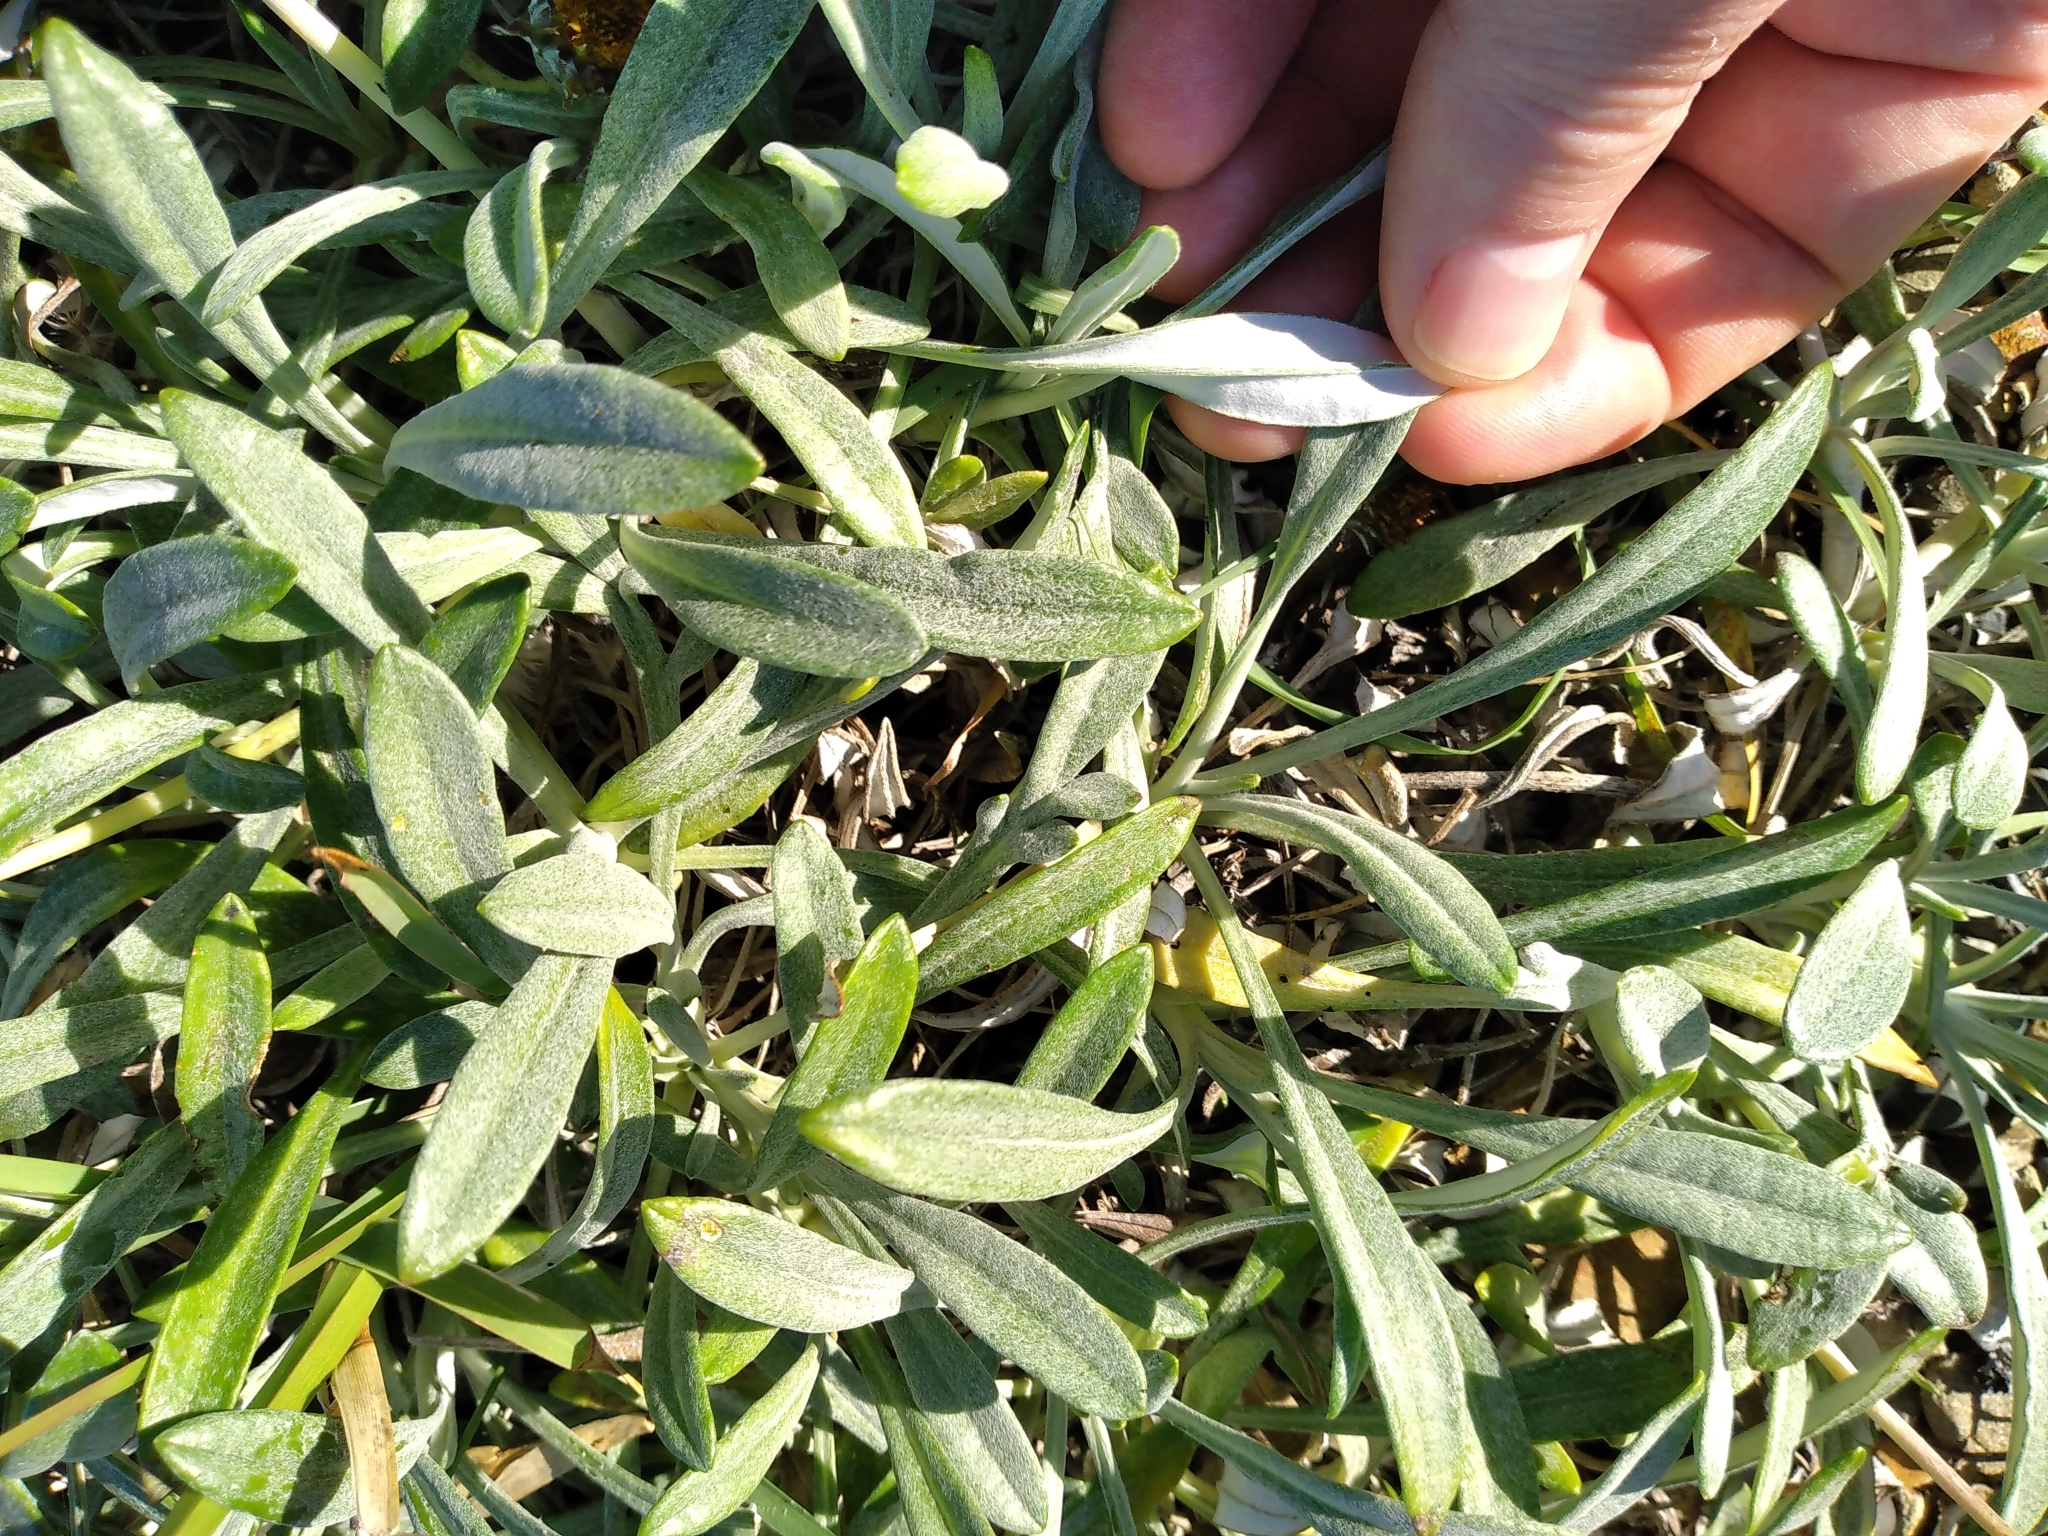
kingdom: Plantae
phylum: Tracheophyta
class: Magnoliopsida
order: Asterales
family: Asteraceae
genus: Gazania
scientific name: Gazania rigens
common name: Treasureflower
